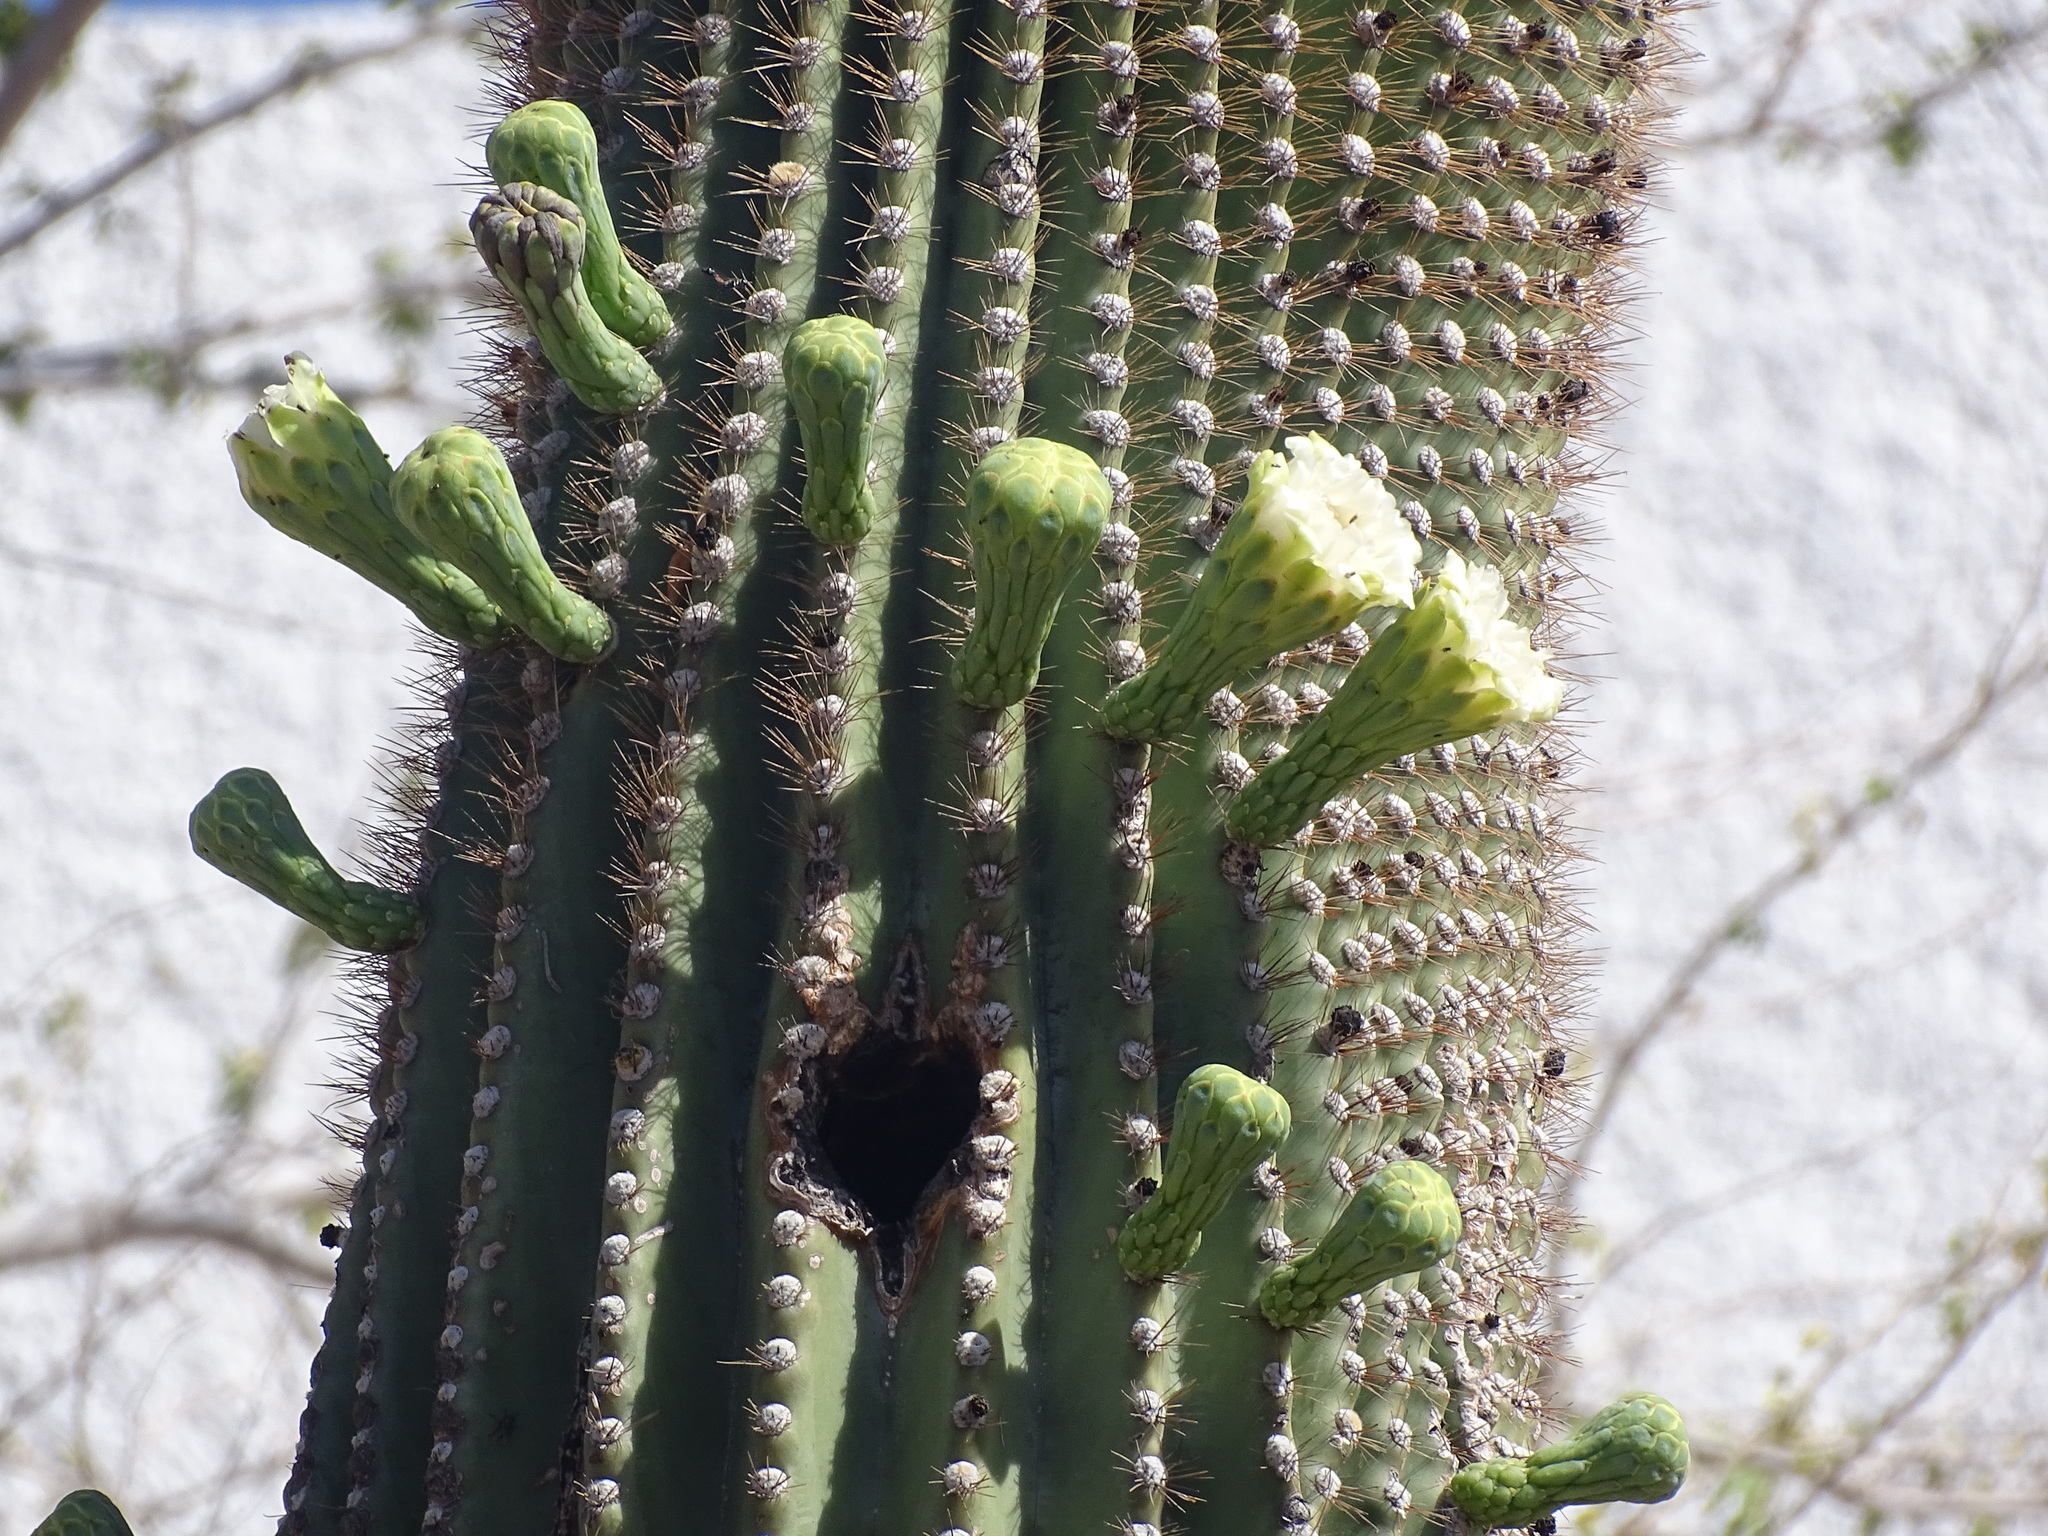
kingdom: Plantae
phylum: Tracheophyta
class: Magnoliopsida
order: Caryophyllales
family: Cactaceae
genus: Carnegiea
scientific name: Carnegiea gigantea
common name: Saguaro
